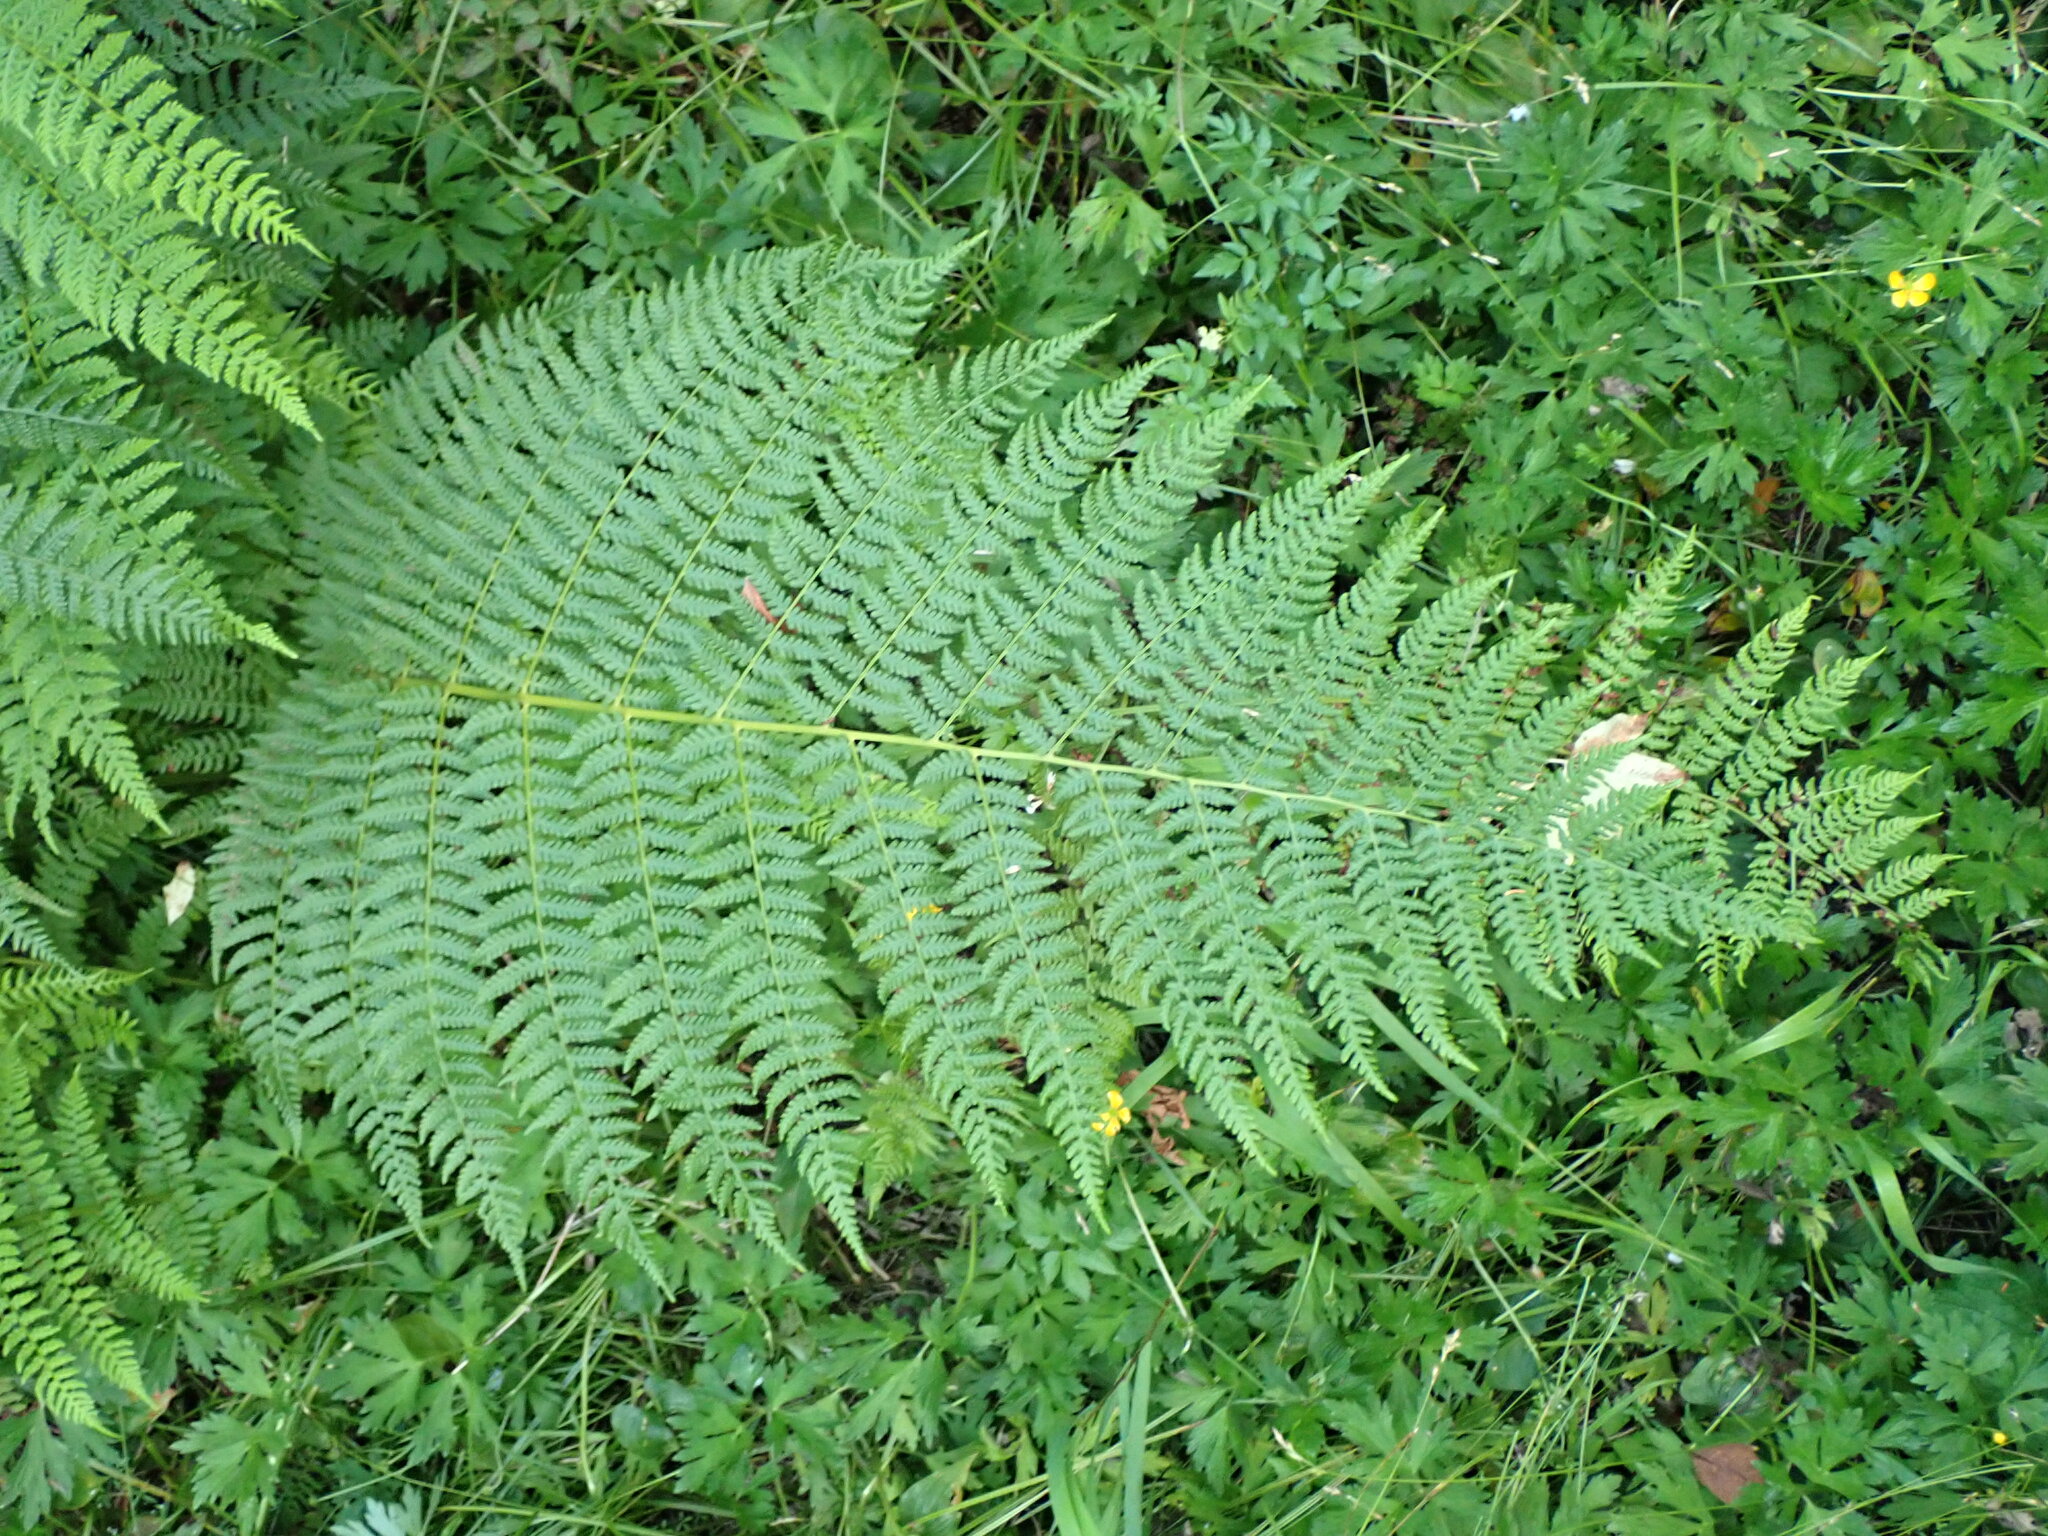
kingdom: Plantae
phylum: Tracheophyta
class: Polypodiopsida
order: Polypodiales
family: Athyriaceae
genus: Athyrium
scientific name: Athyrium filix-femina
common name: Lady fern
